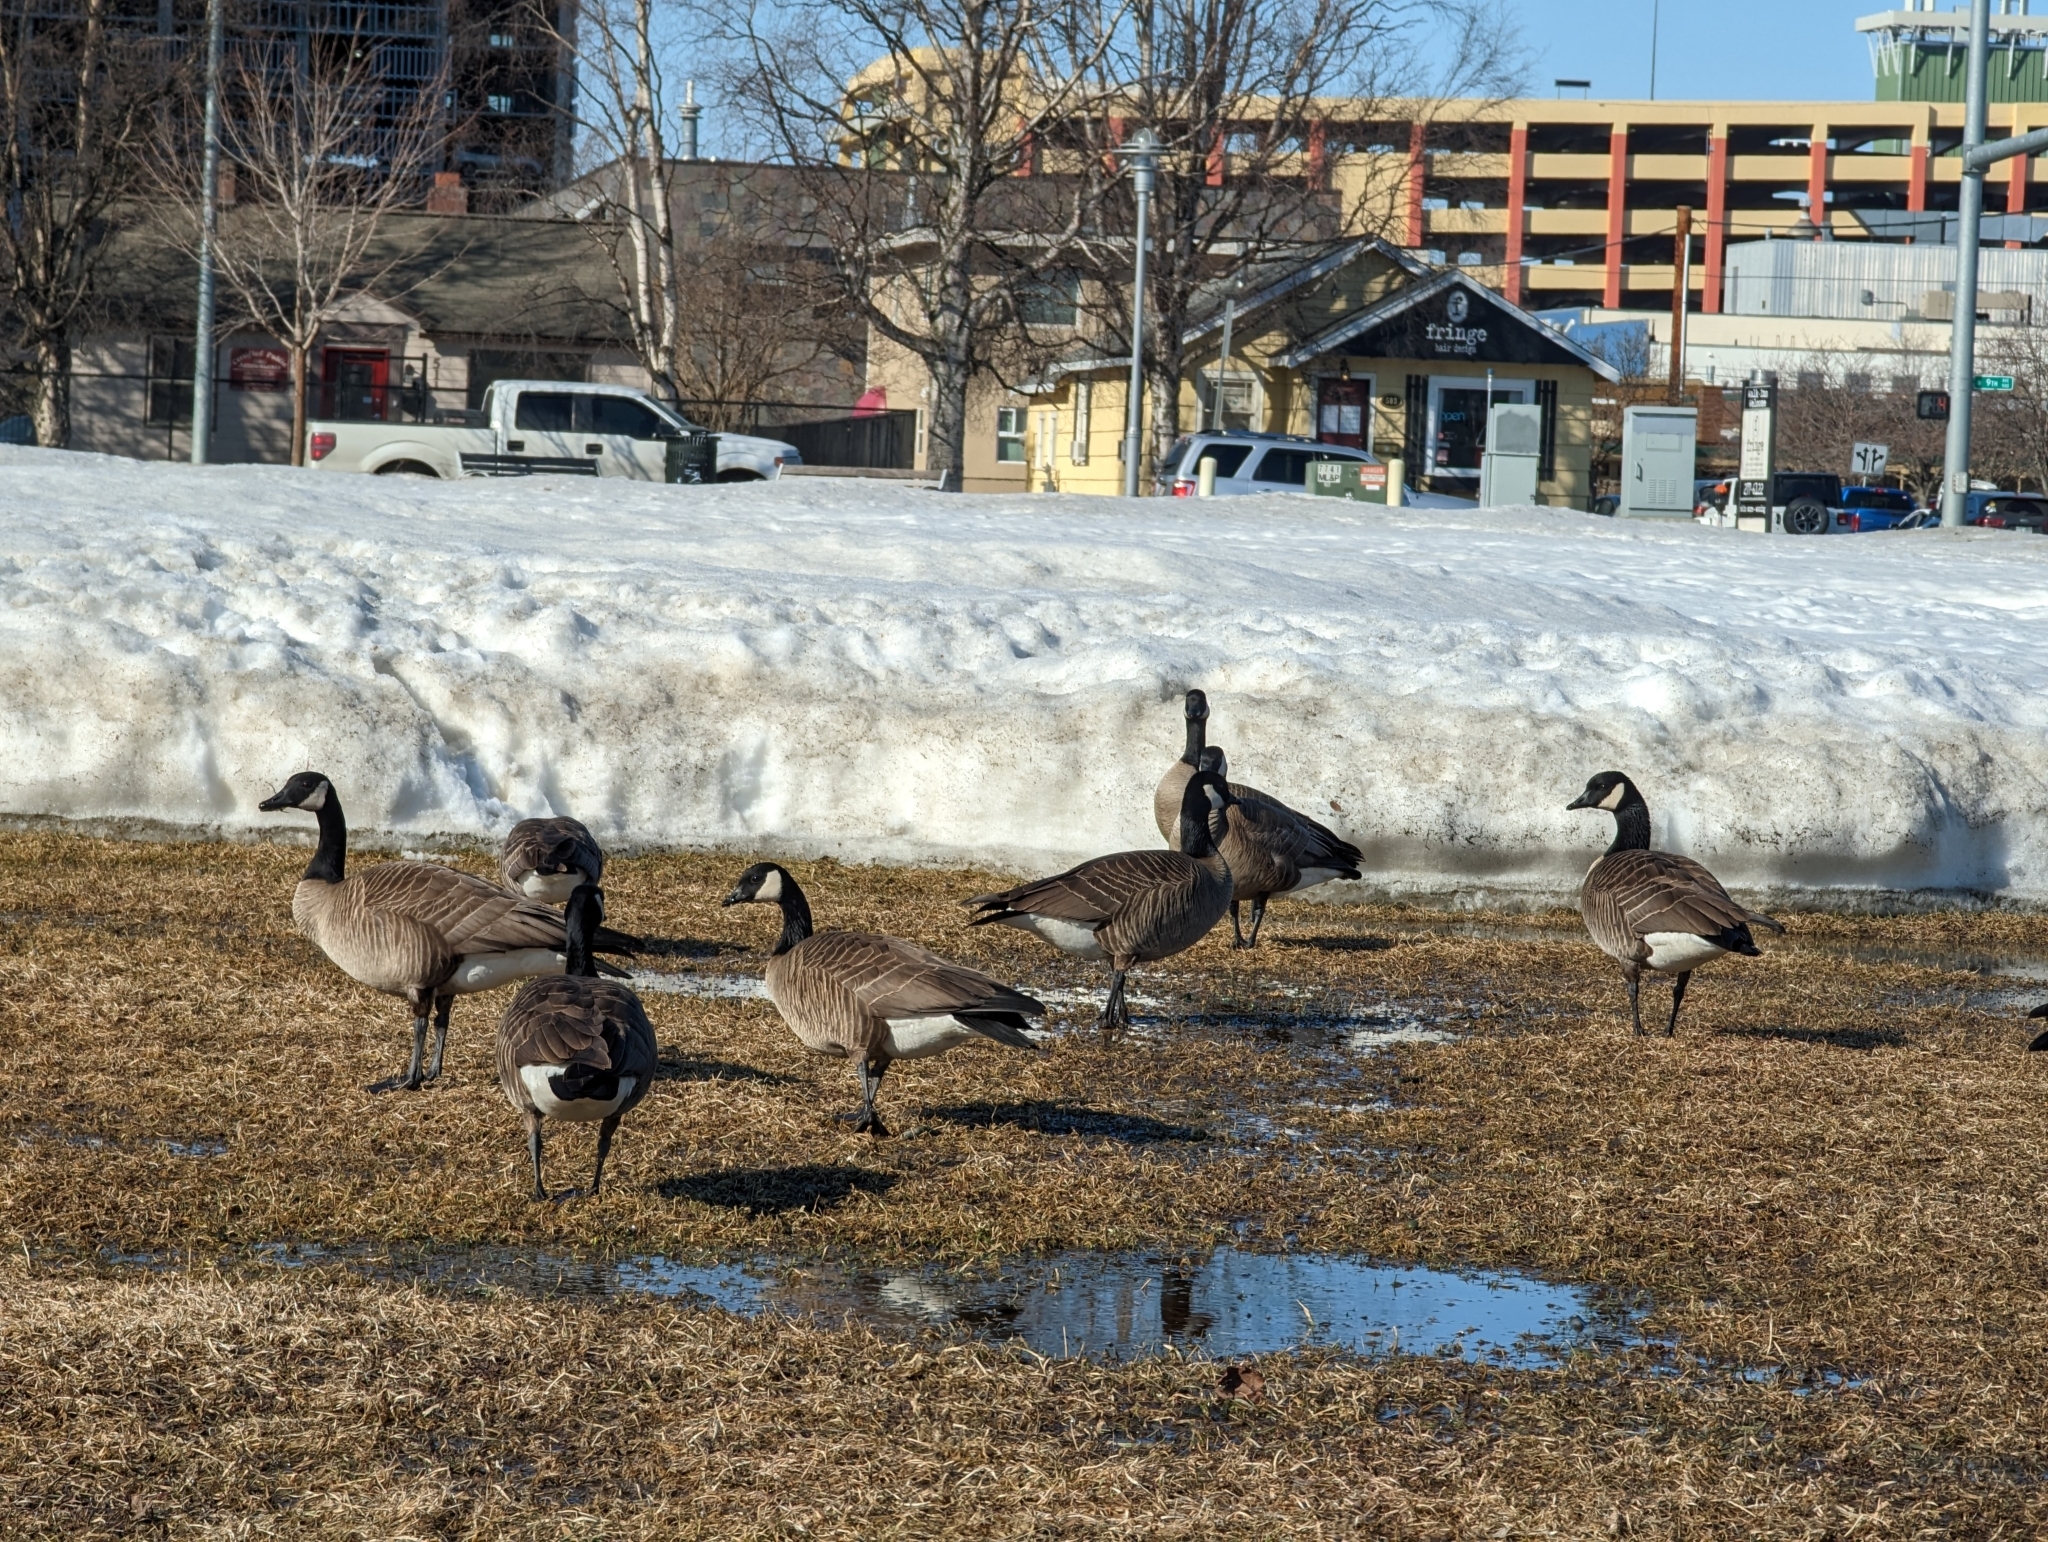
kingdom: Animalia
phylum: Chordata
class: Aves
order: Anseriformes
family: Anatidae
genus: Branta
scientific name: Branta canadensis
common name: Canada goose
